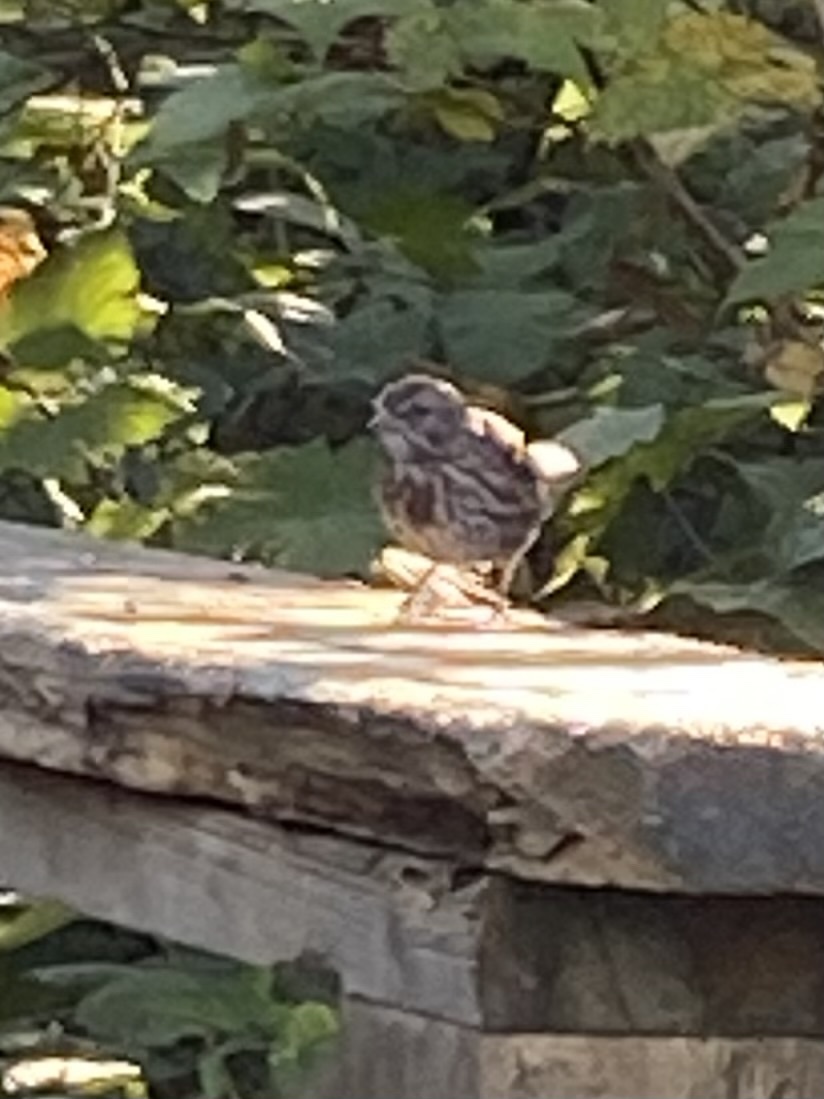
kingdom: Animalia
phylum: Chordata
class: Aves
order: Passeriformes
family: Passerellidae
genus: Melospiza
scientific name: Melospiza melodia
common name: Song sparrow
